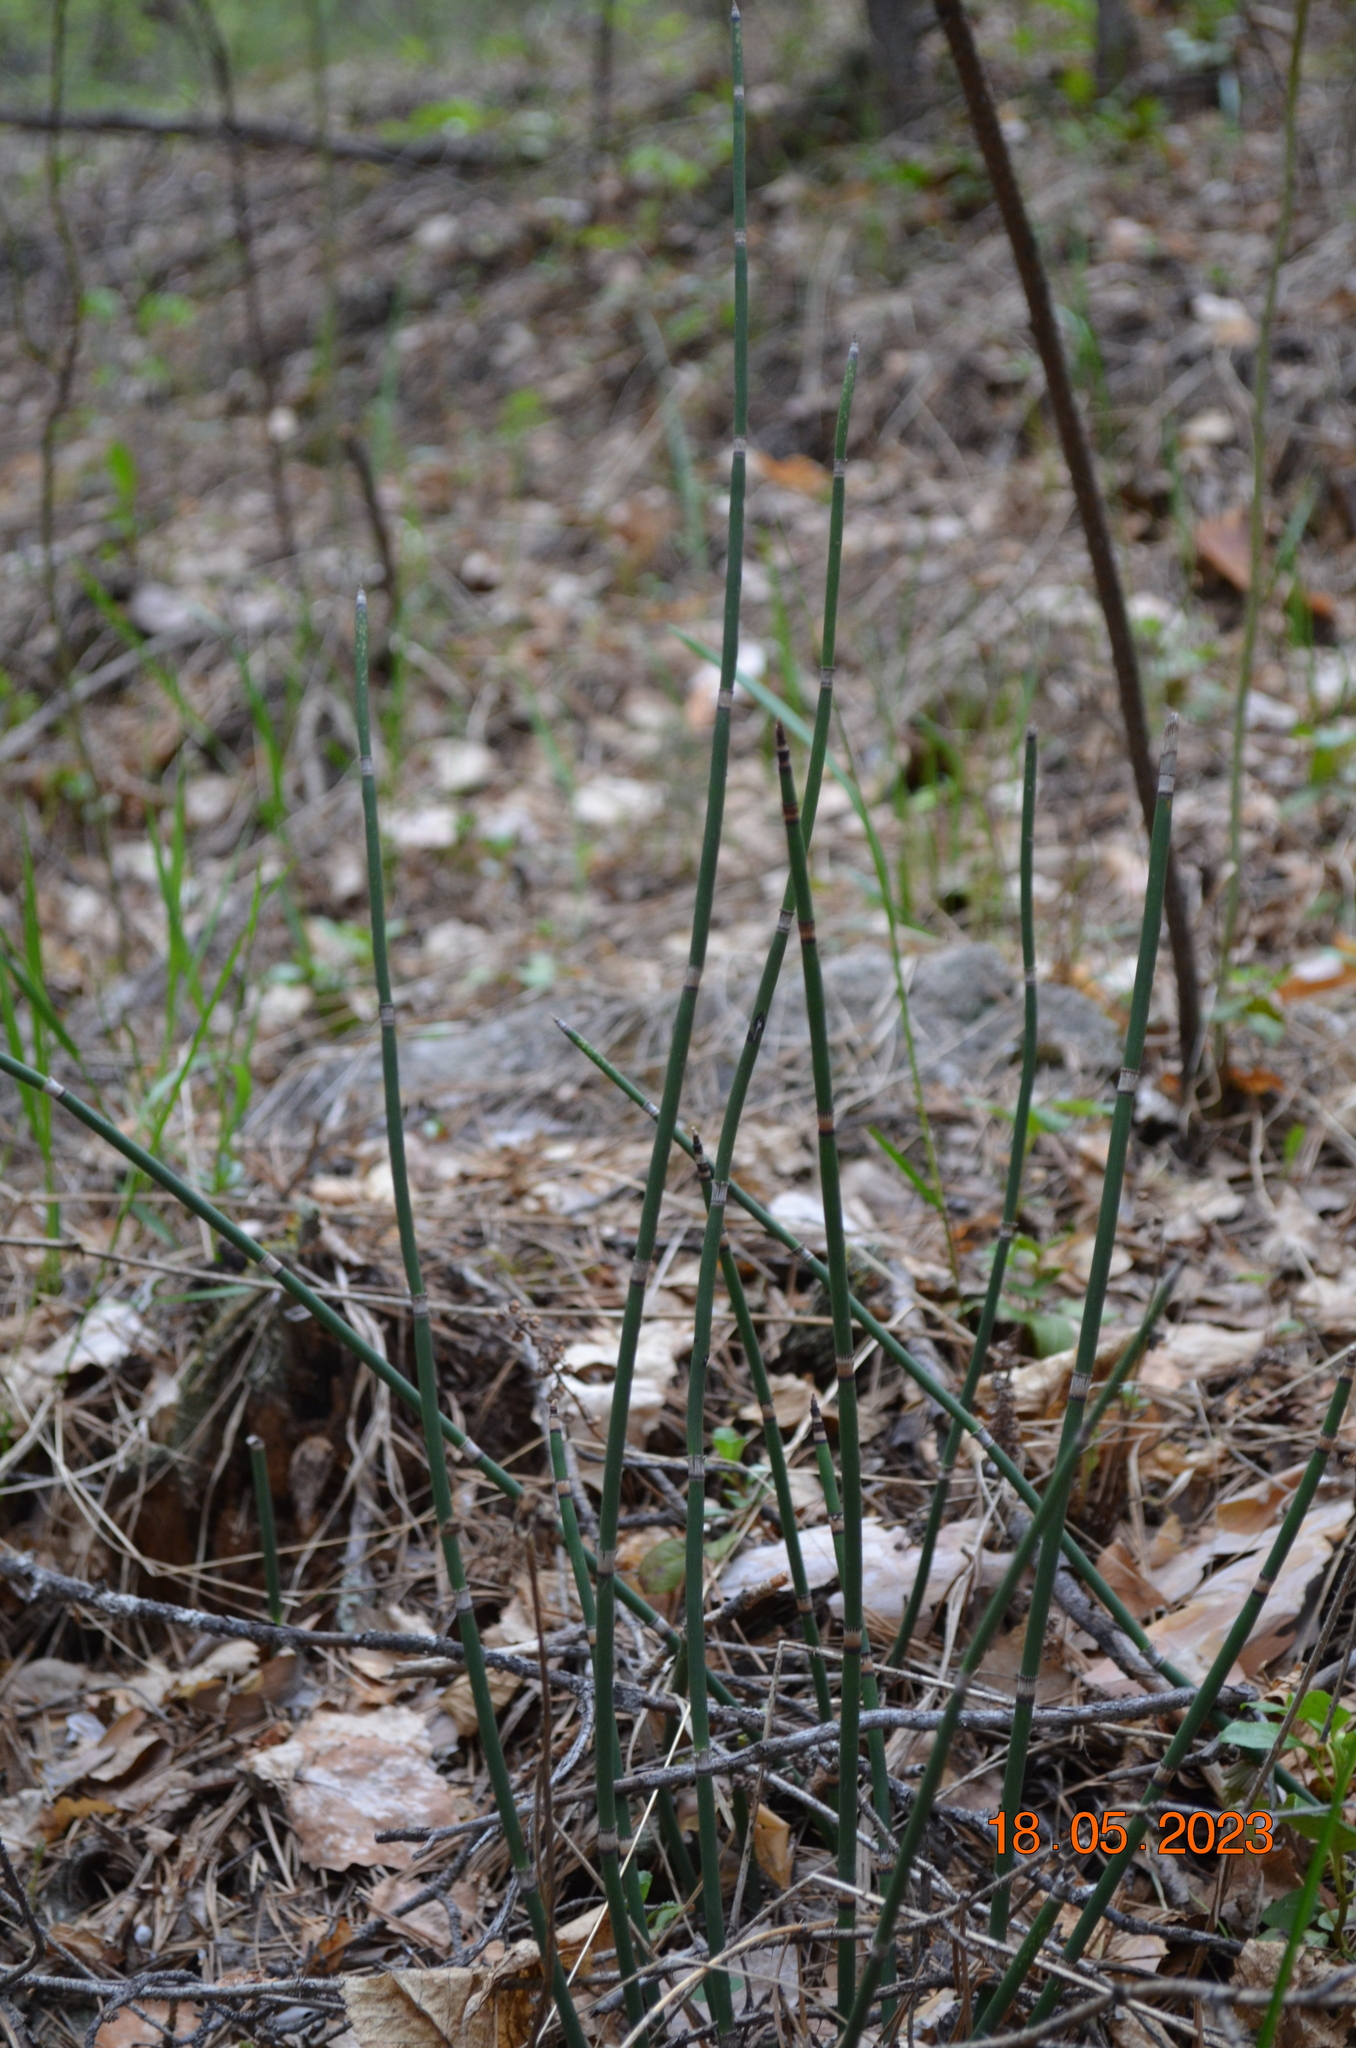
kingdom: Plantae
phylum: Tracheophyta
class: Polypodiopsida
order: Equisetales
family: Equisetaceae
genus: Equisetum
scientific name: Equisetum hyemale
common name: Rough horsetail
